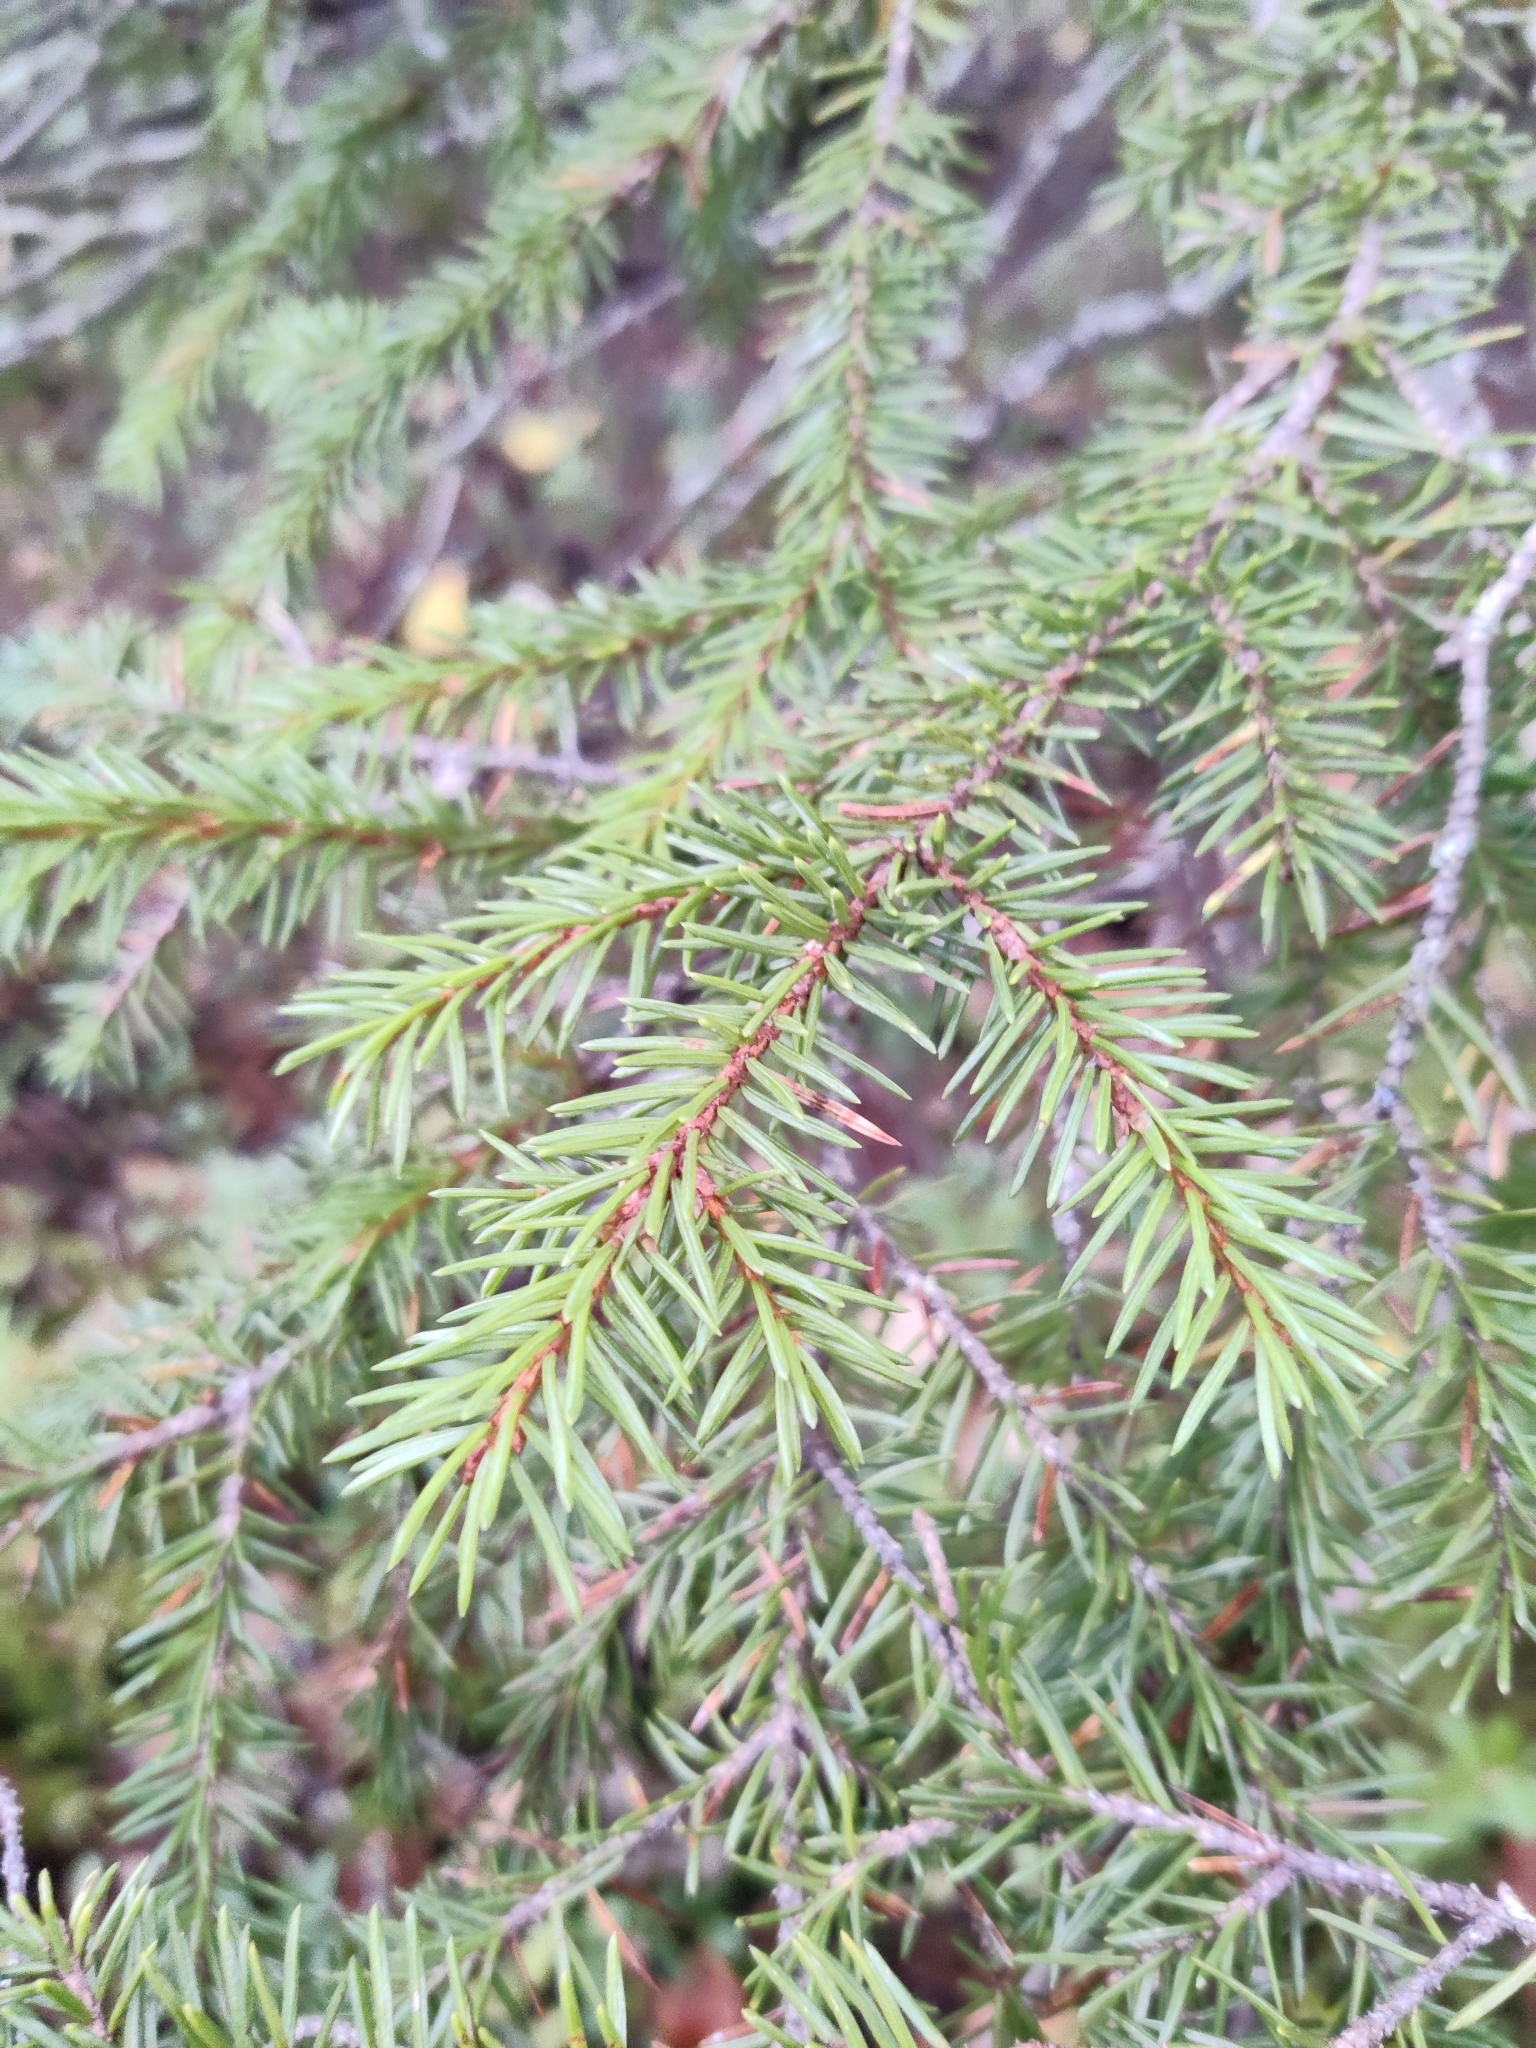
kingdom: Plantae
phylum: Tracheophyta
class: Pinopsida
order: Pinales
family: Pinaceae
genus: Picea
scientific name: Picea abies
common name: Norway spruce
